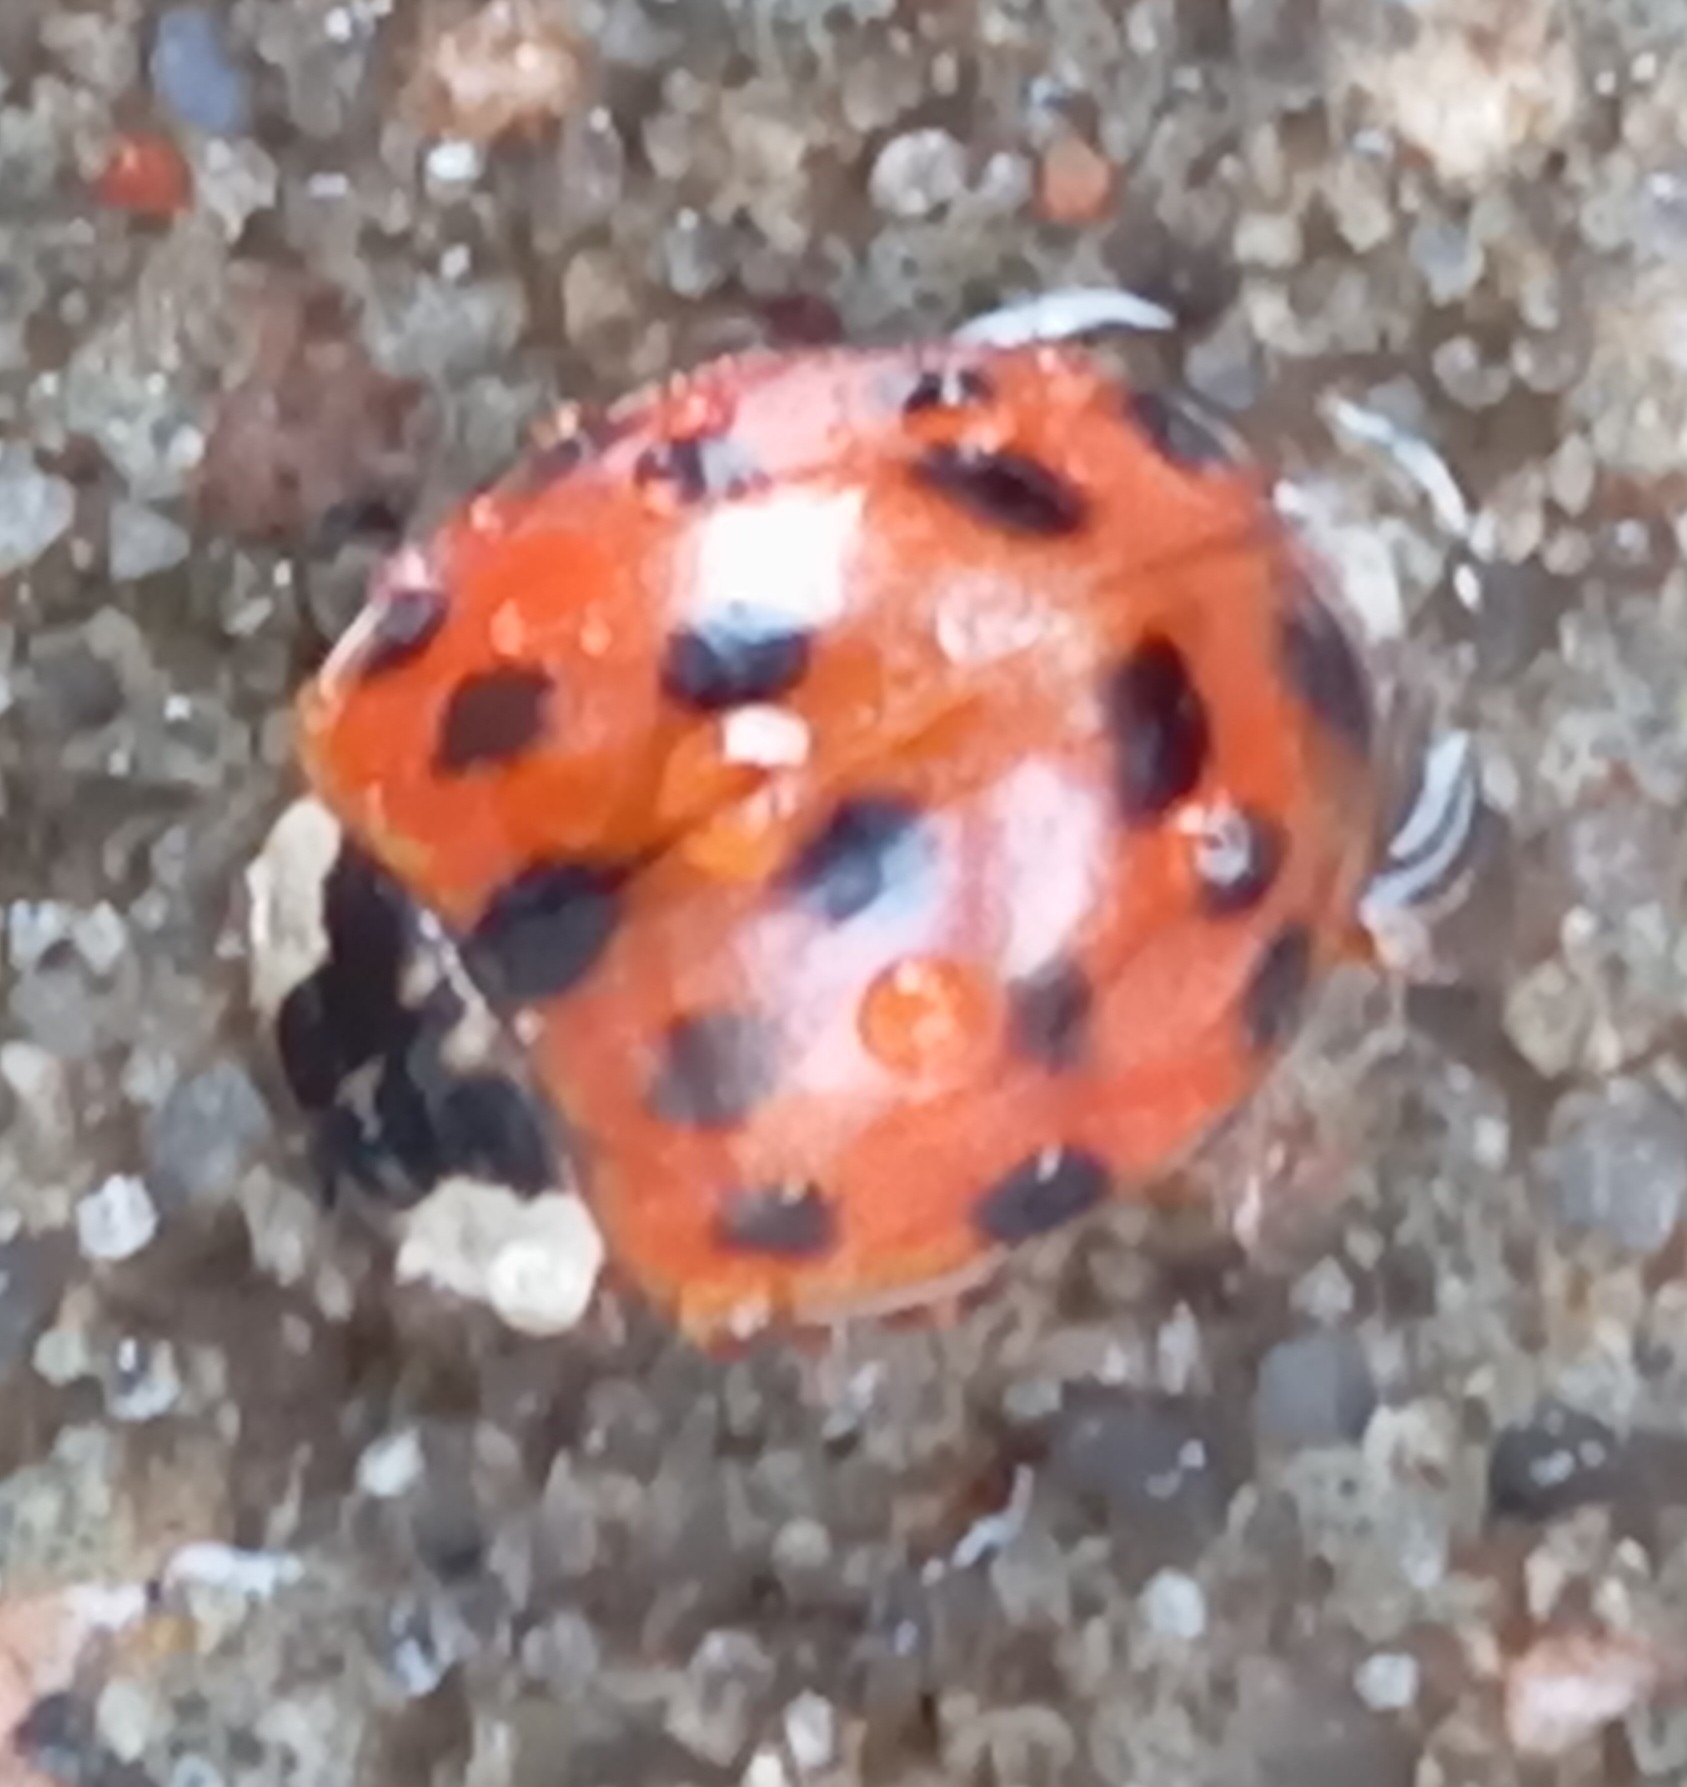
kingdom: Animalia
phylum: Arthropoda
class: Insecta
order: Coleoptera
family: Coccinellidae
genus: Harmonia
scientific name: Harmonia axyridis
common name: Harlequin ladybird
